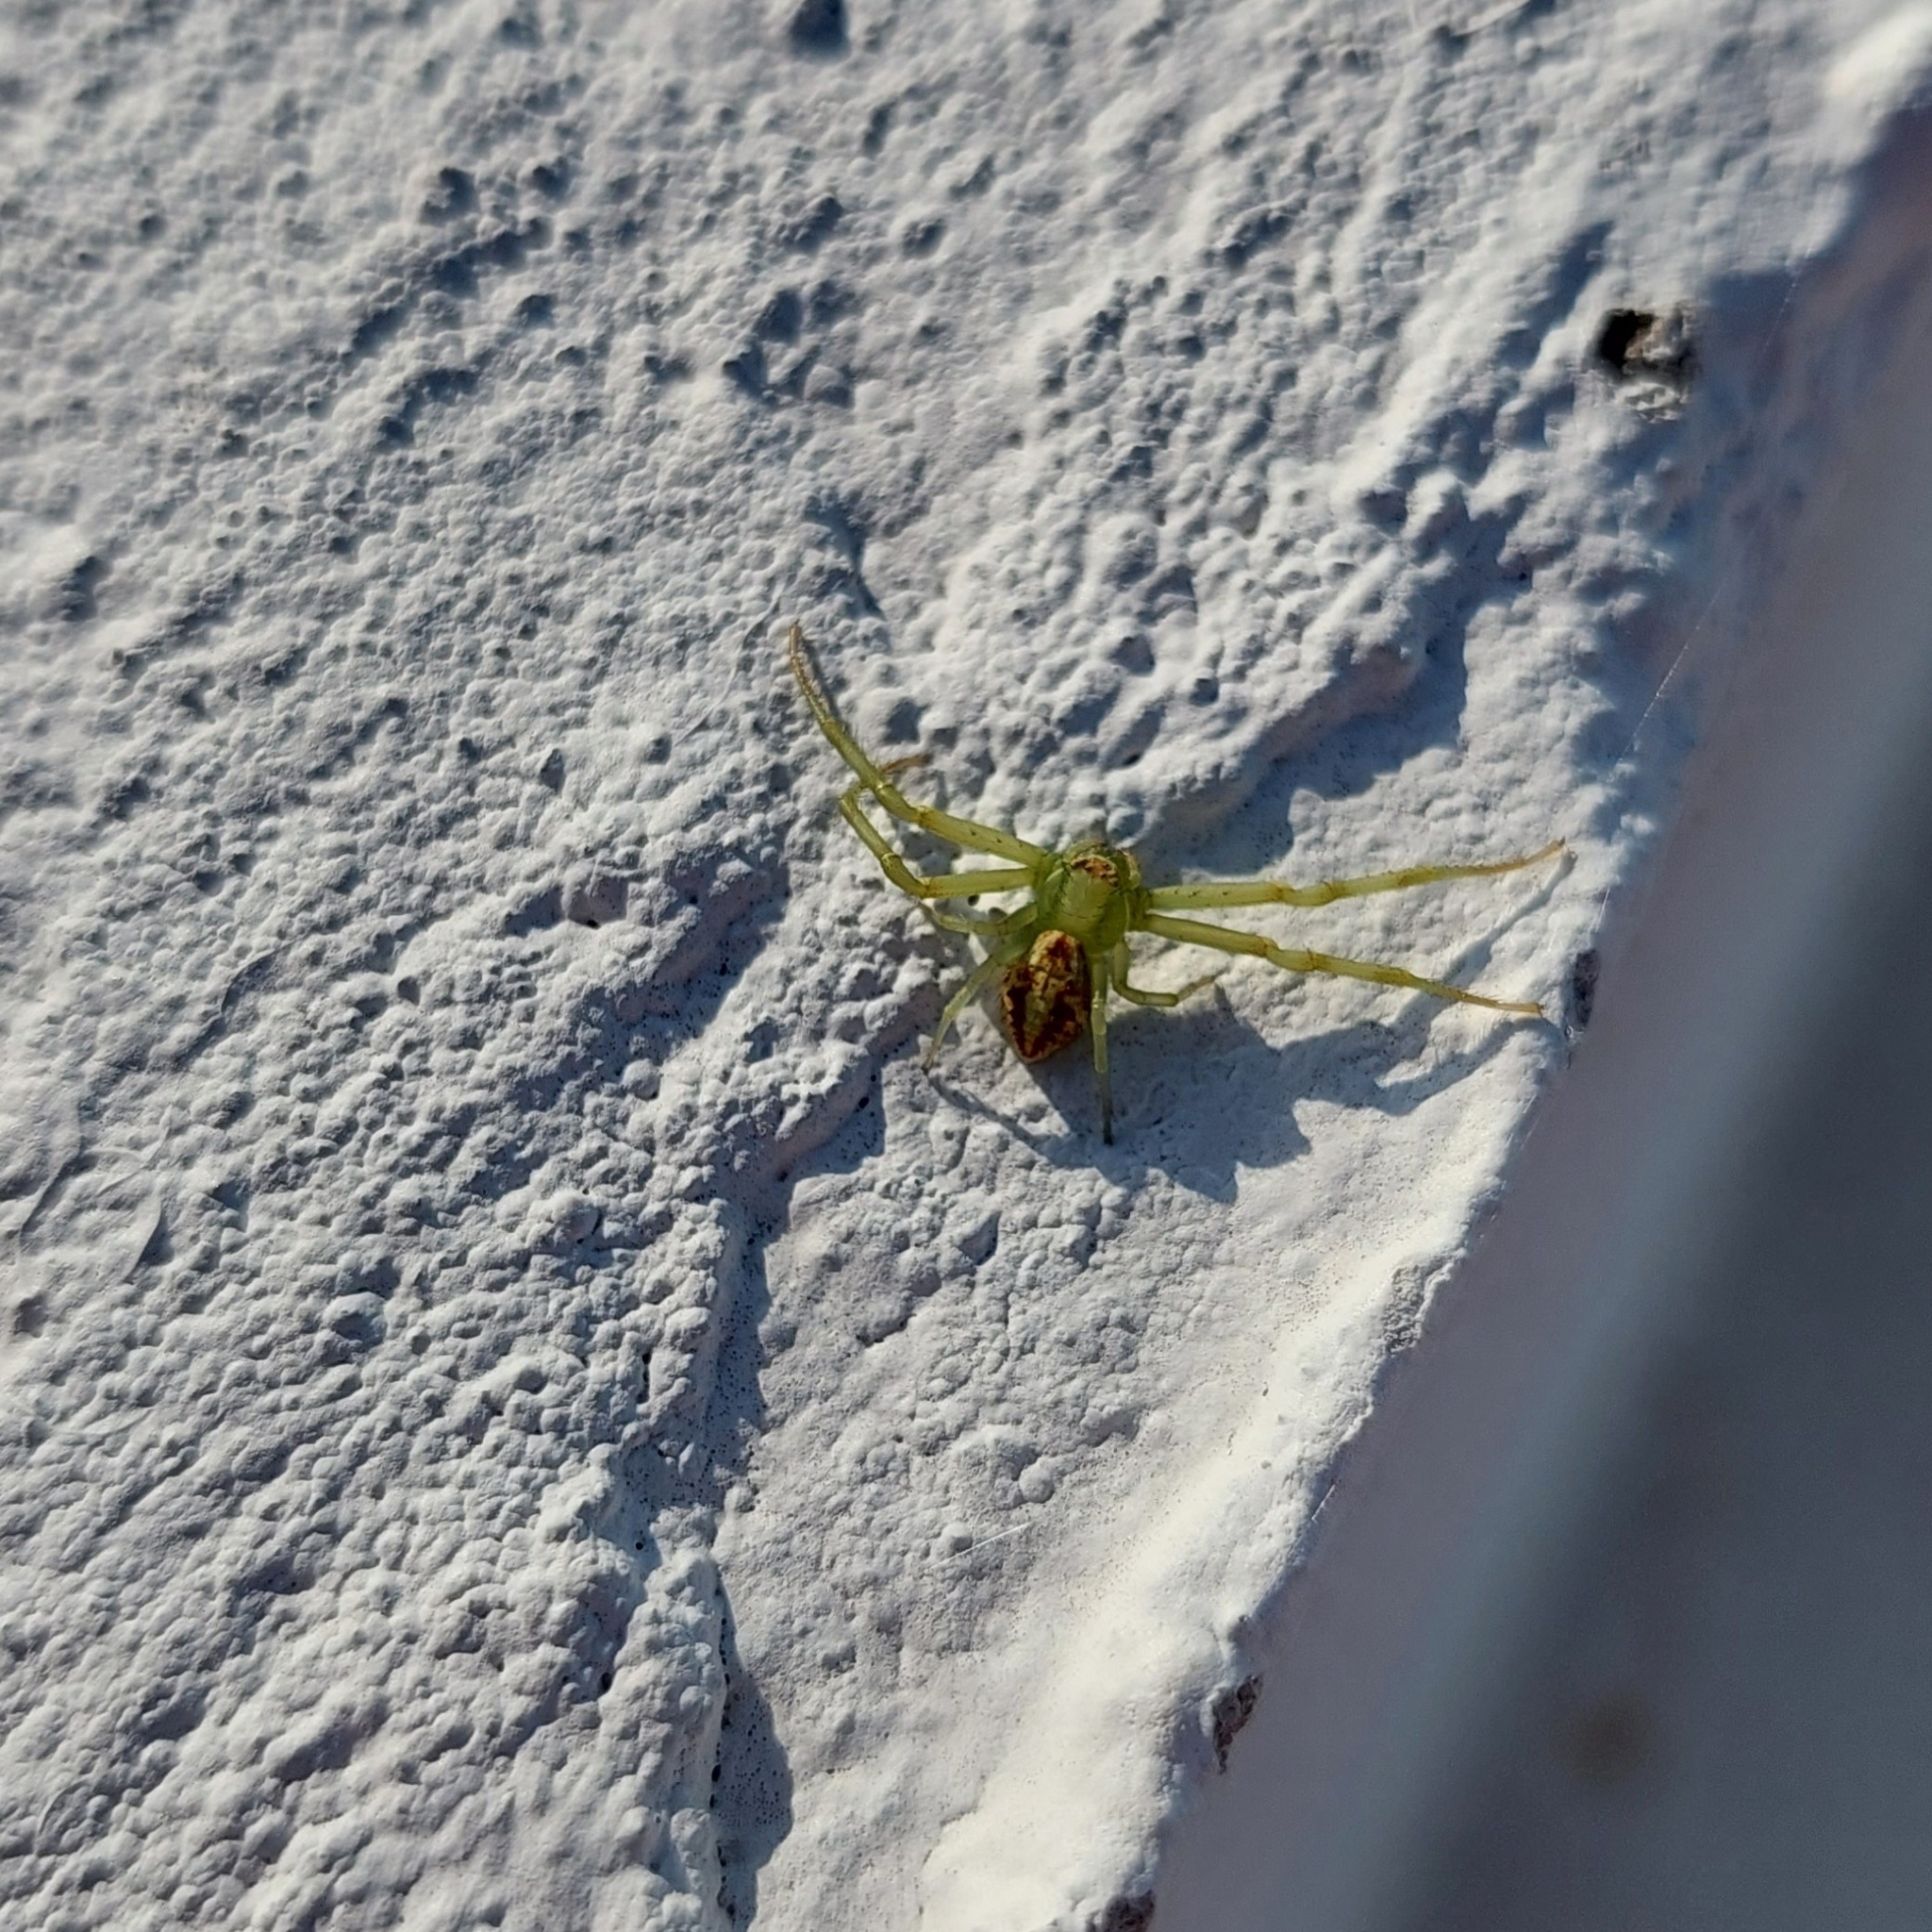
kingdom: Animalia
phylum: Arthropoda
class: Arachnida
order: Araneae
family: Thomisidae
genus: Misumenops
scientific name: Misumenops
